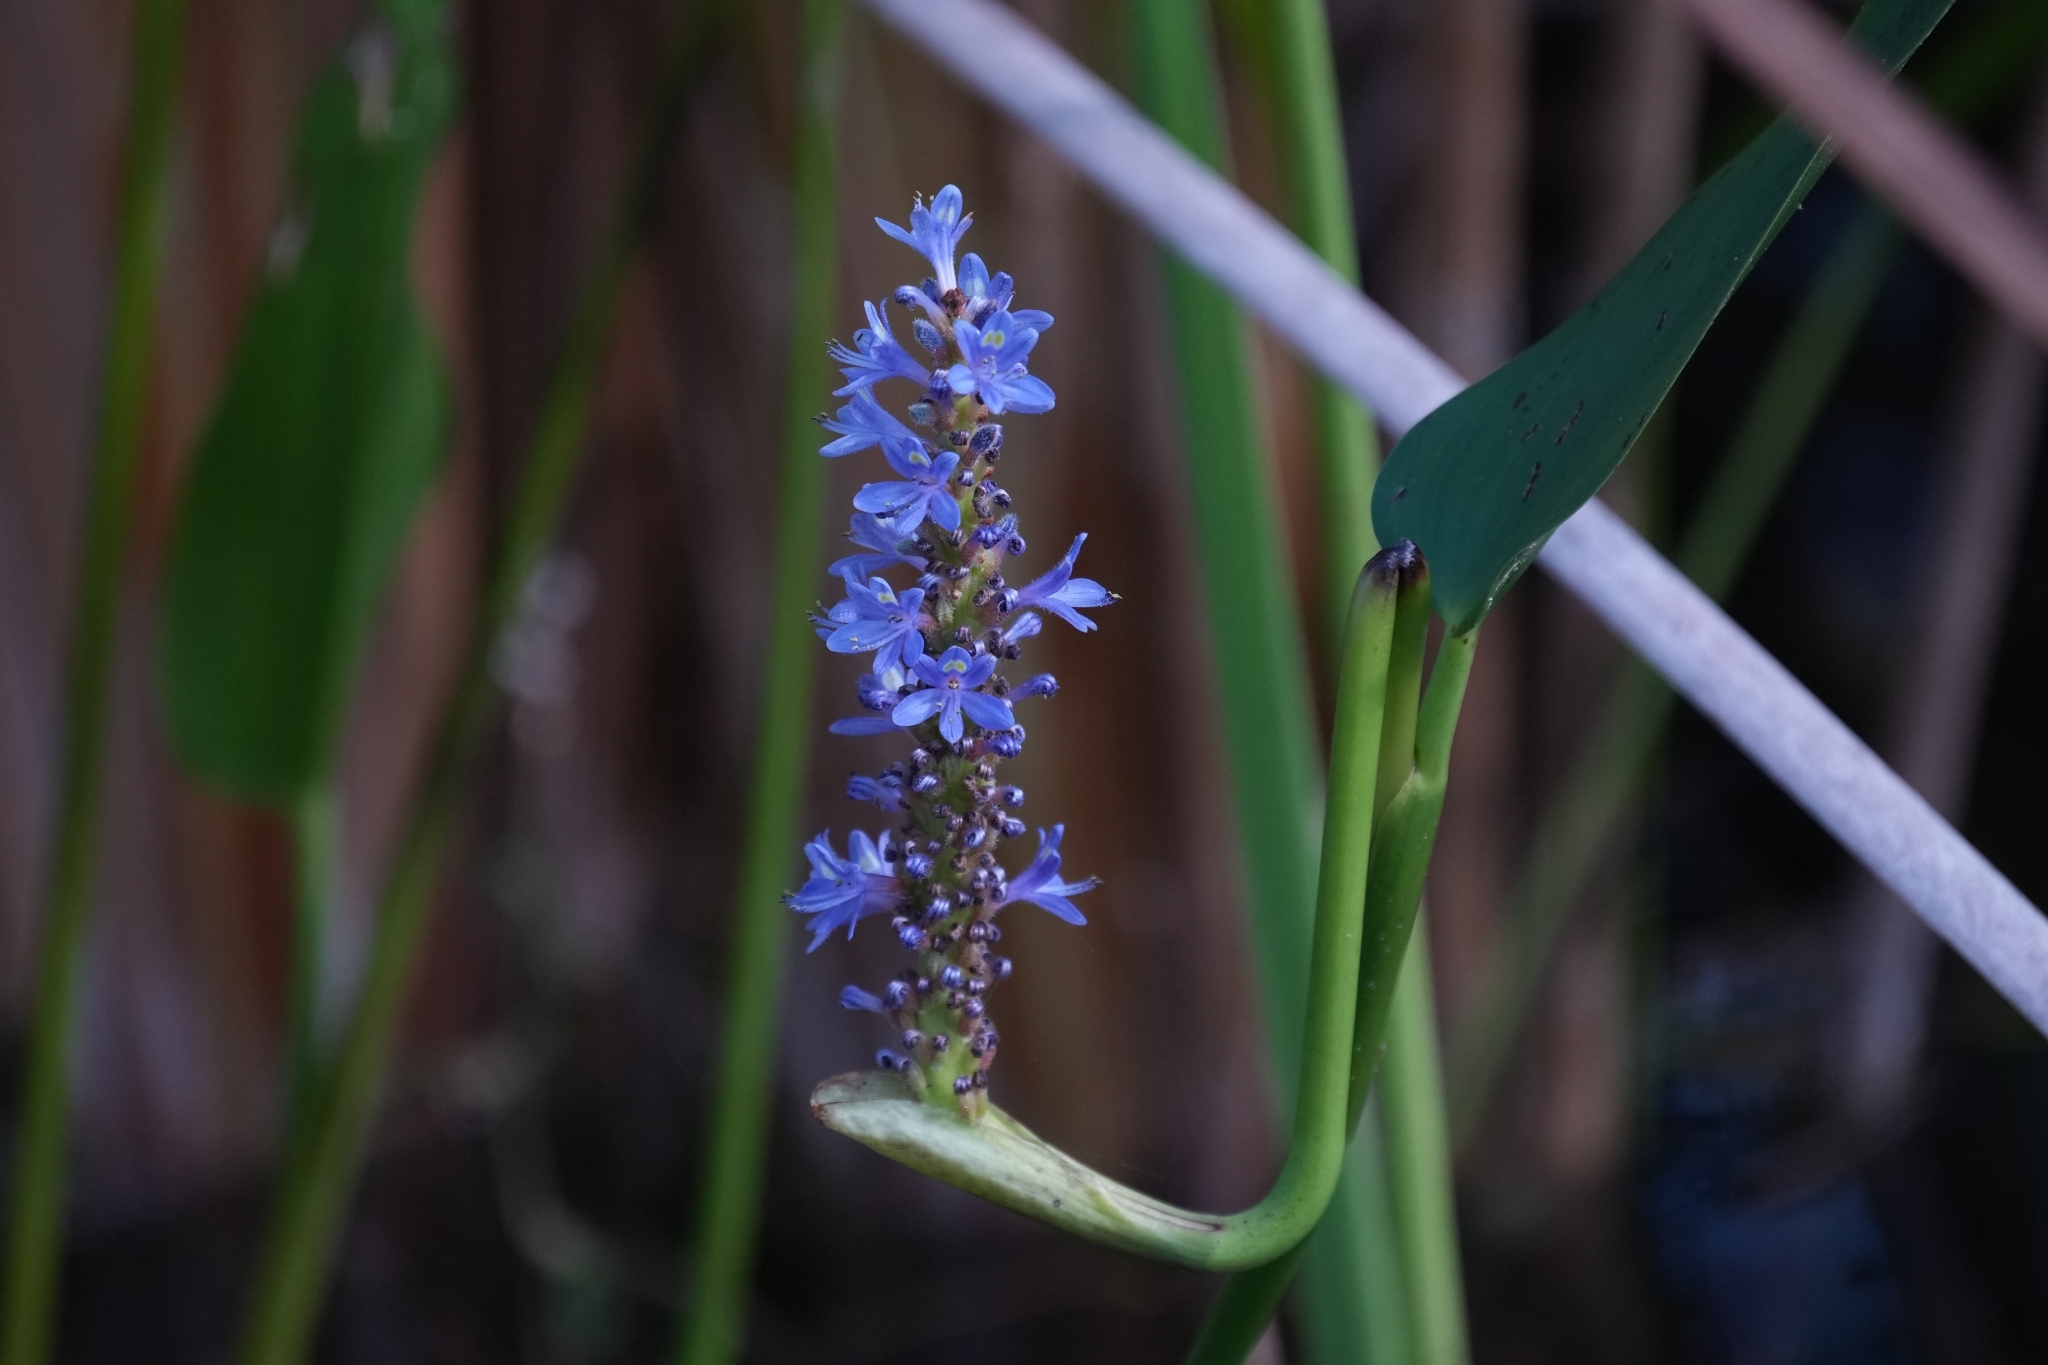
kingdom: Plantae
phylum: Tracheophyta
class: Liliopsida
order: Commelinales
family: Pontederiaceae
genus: Pontederia
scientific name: Pontederia cordata
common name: Pickerelweed
